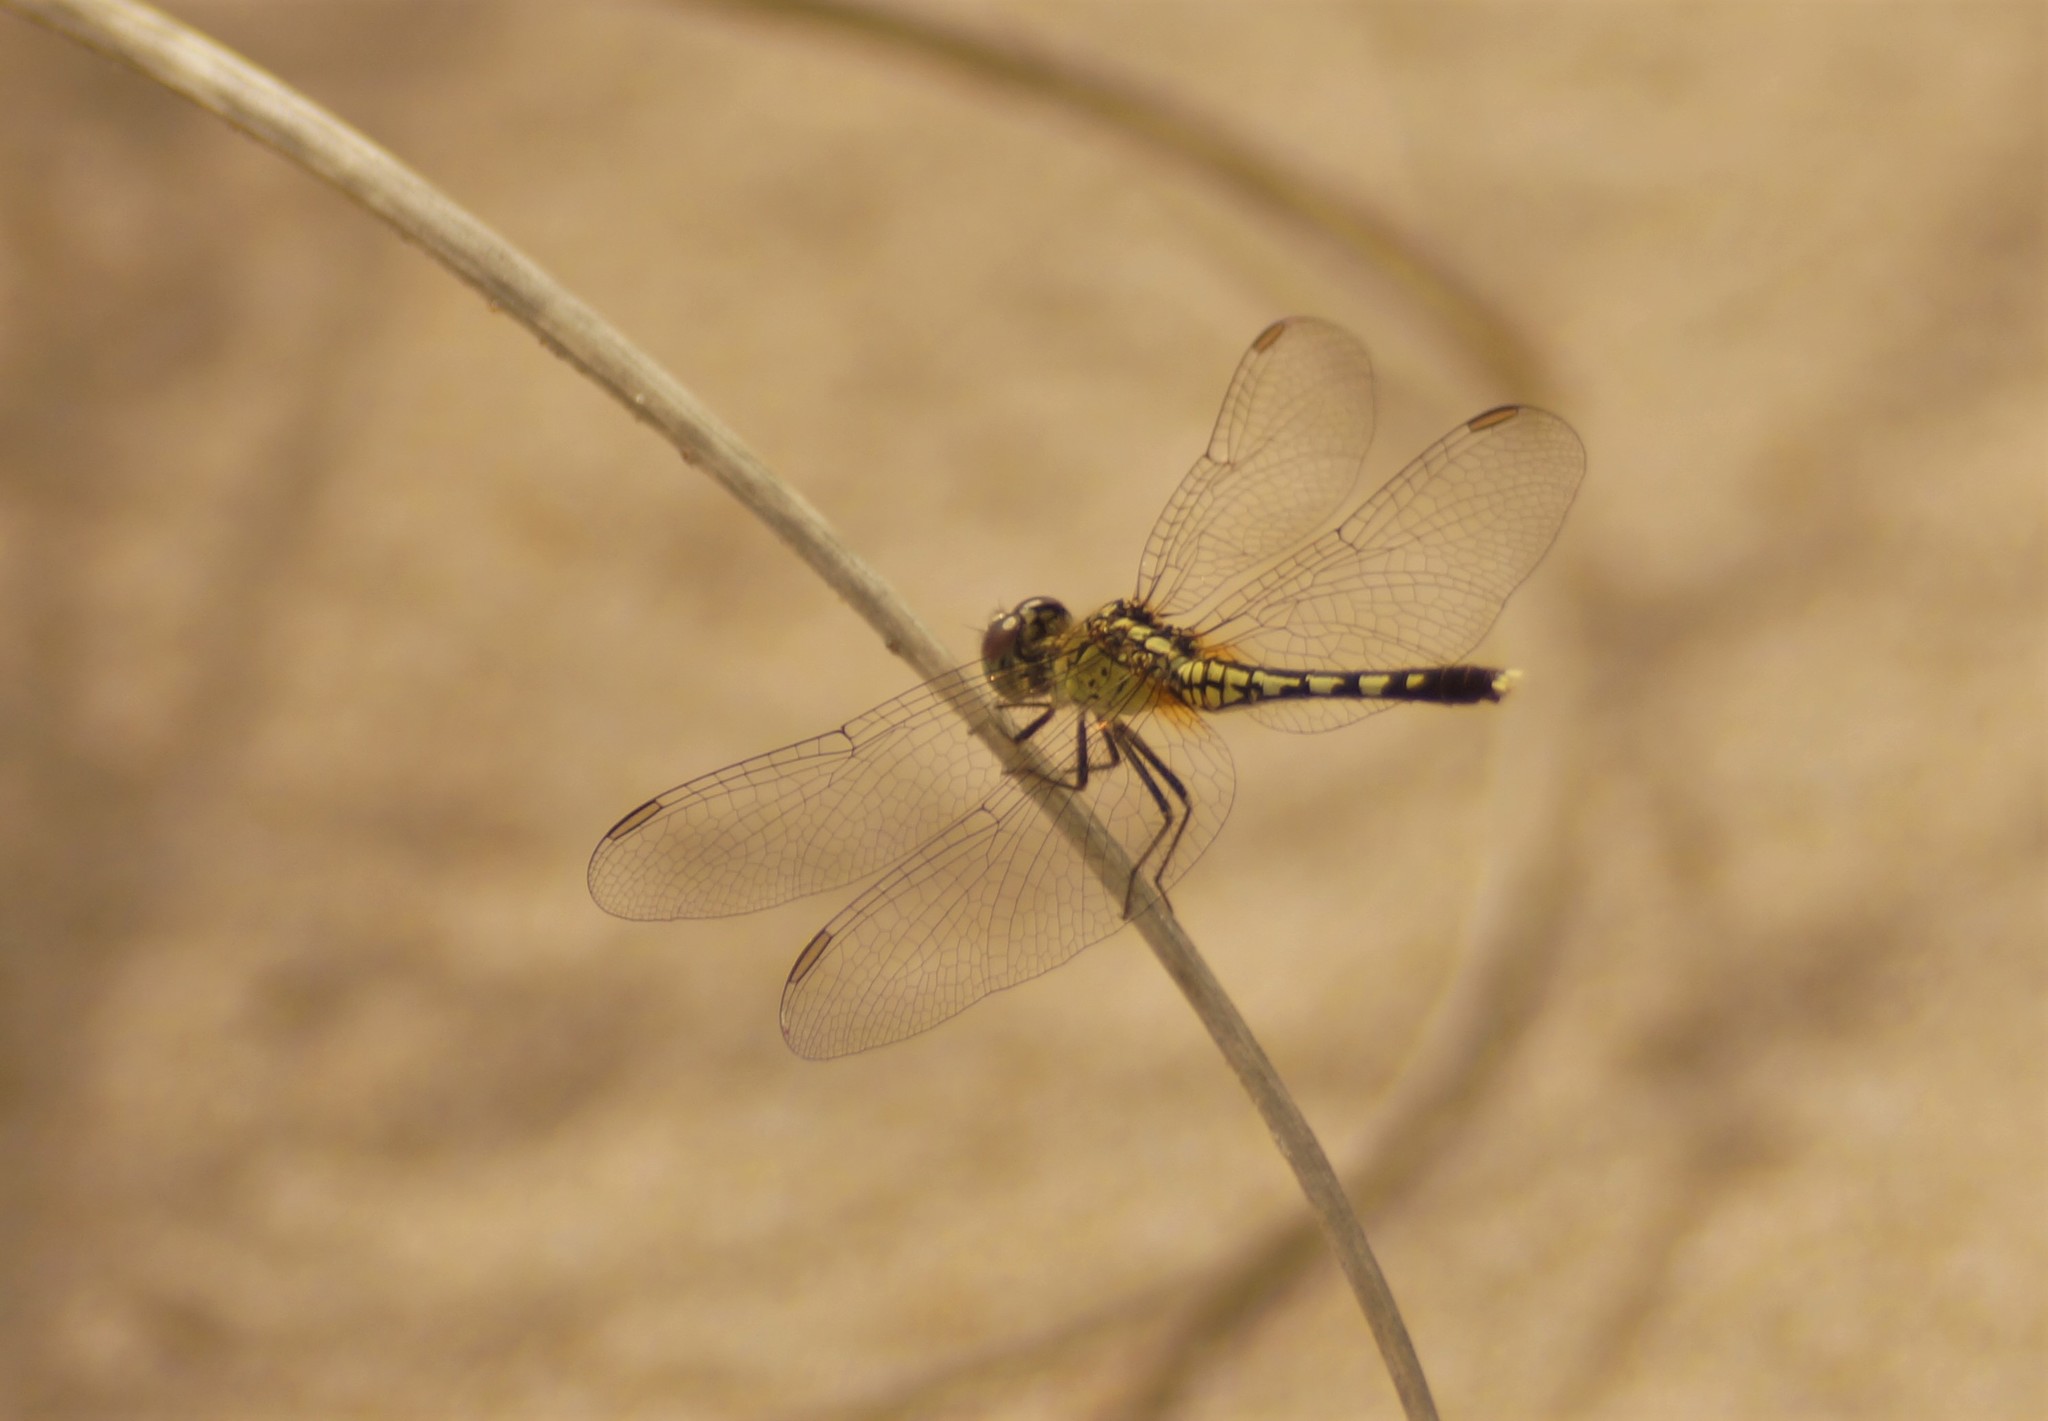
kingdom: Animalia
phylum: Arthropoda
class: Insecta
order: Odonata
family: Libellulidae
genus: Diplacodes
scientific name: Diplacodes trivialis
